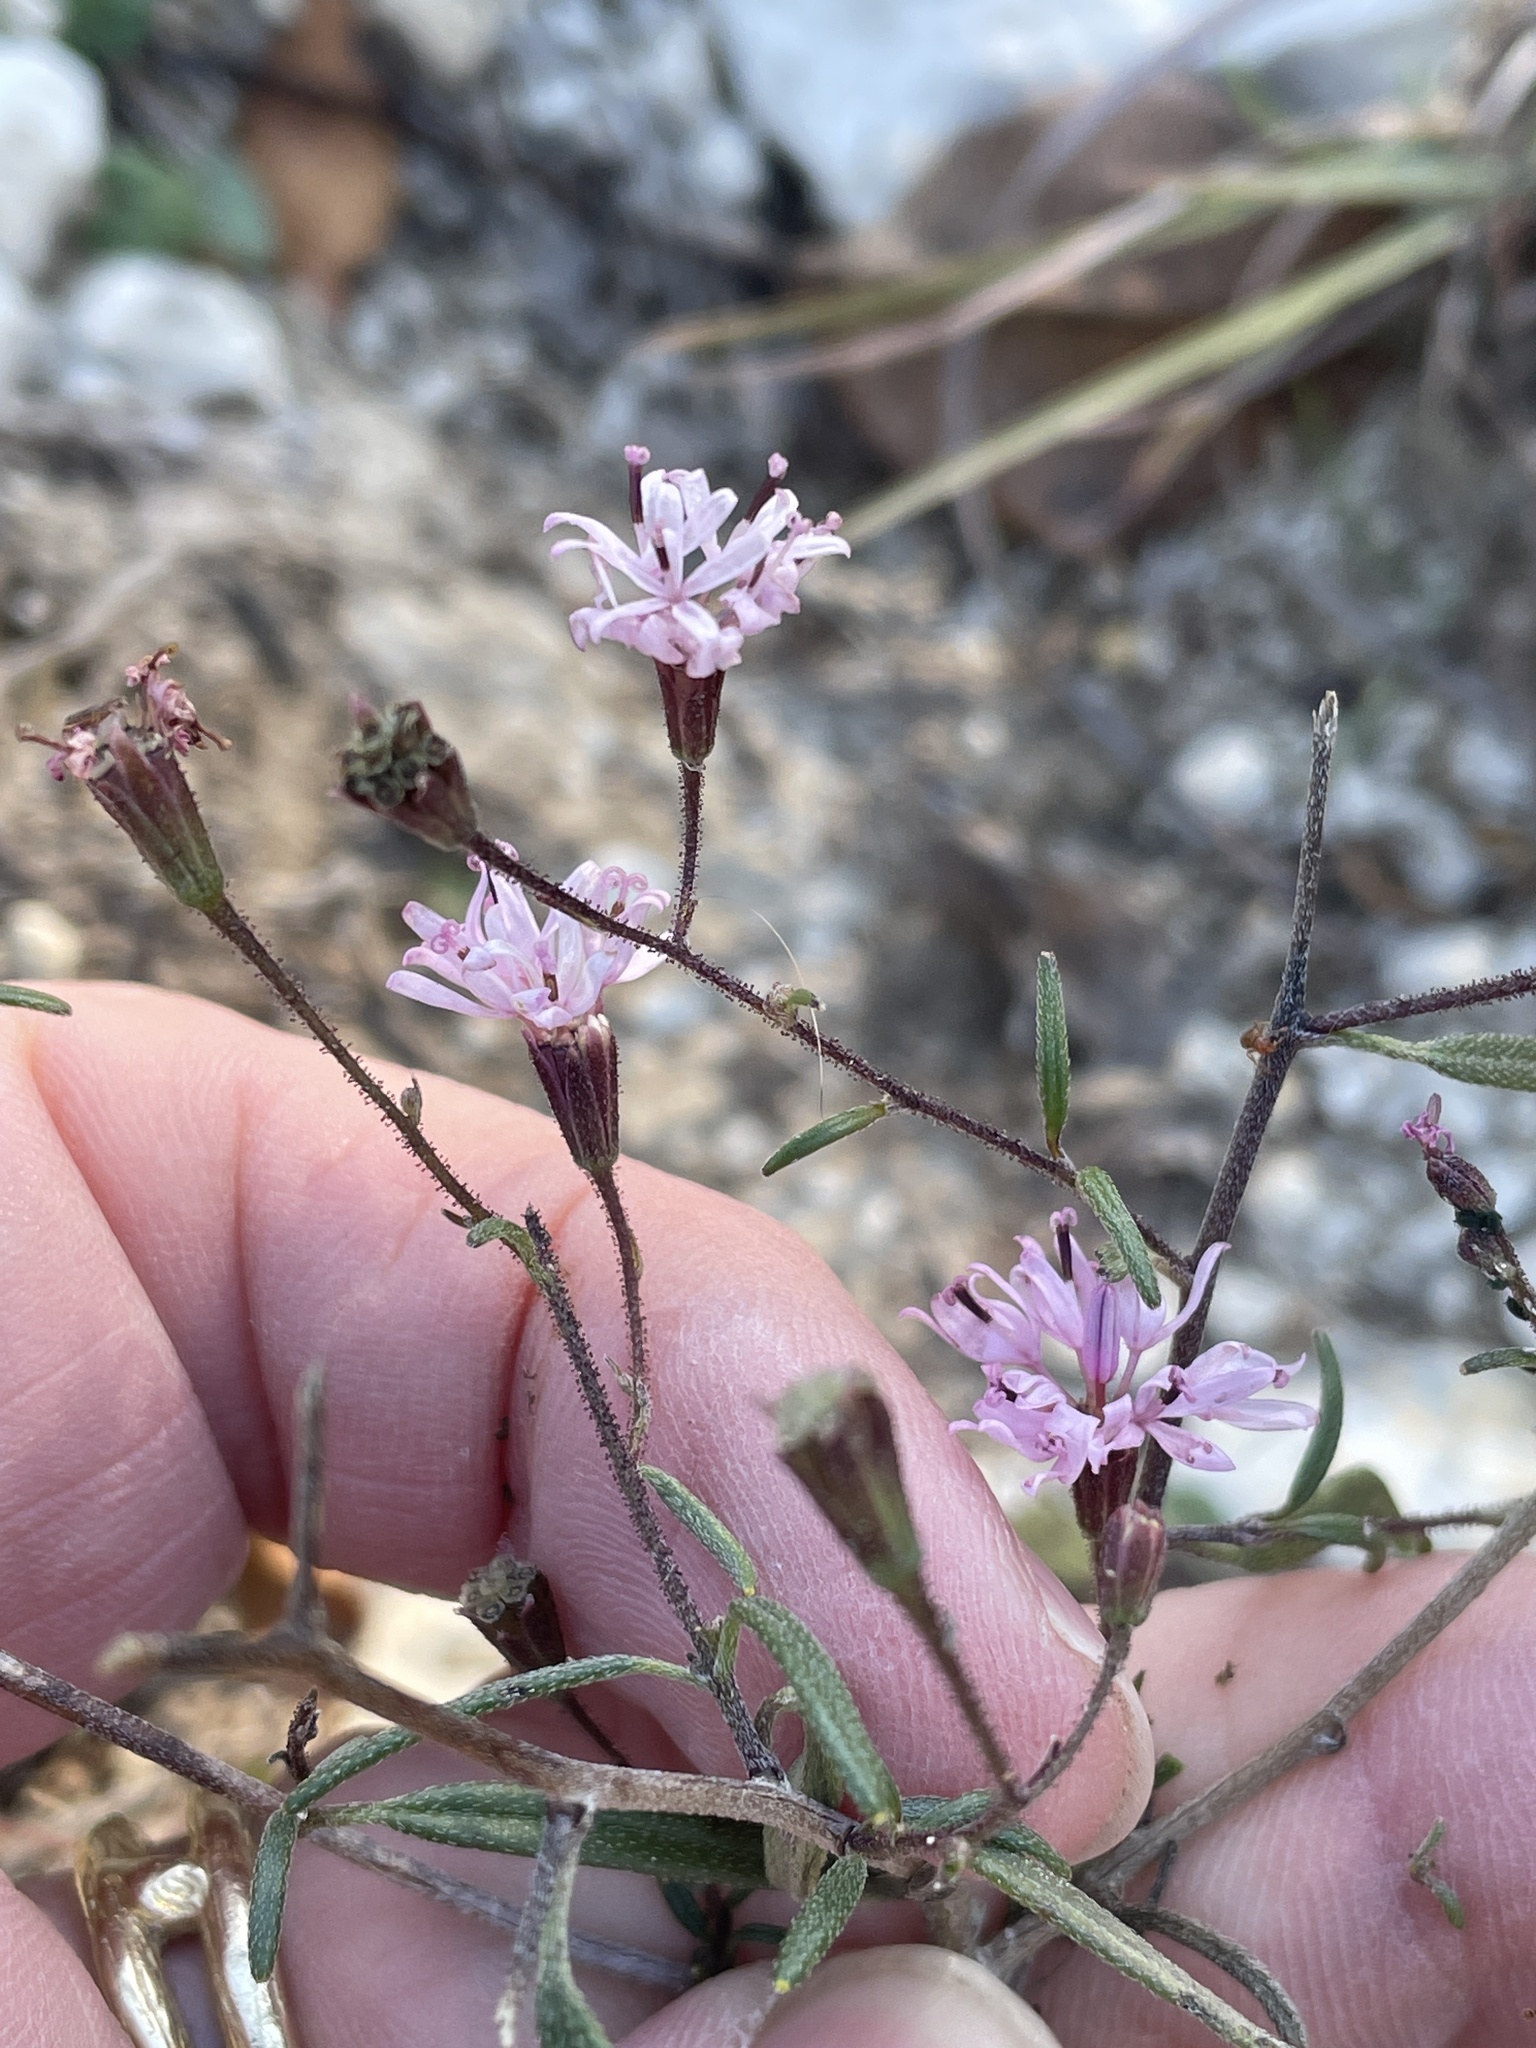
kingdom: Plantae
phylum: Tracheophyta
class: Magnoliopsida
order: Asterales
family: Asteraceae
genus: Palafoxia
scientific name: Palafoxia callosa
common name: Small palafox
